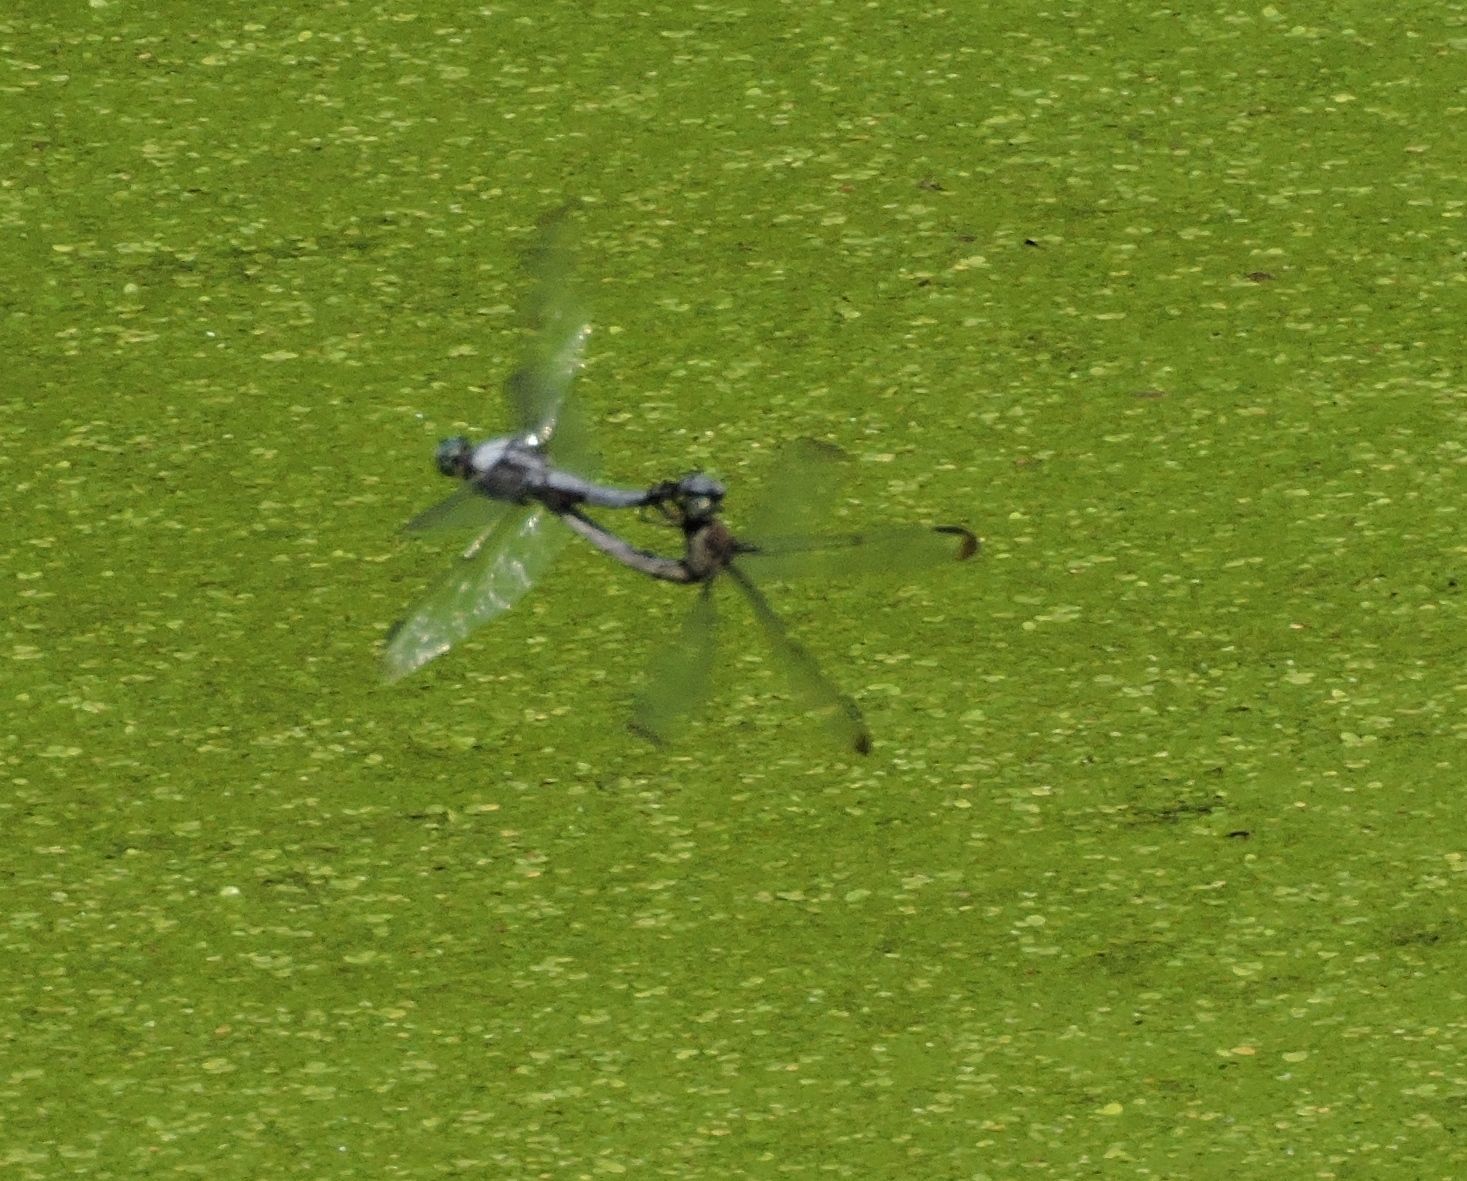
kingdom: Animalia
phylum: Arthropoda
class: Insecta
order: Odonata
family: Libellulidae
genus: Libellula
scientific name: Libellula vibrans
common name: Great blue skimmer
